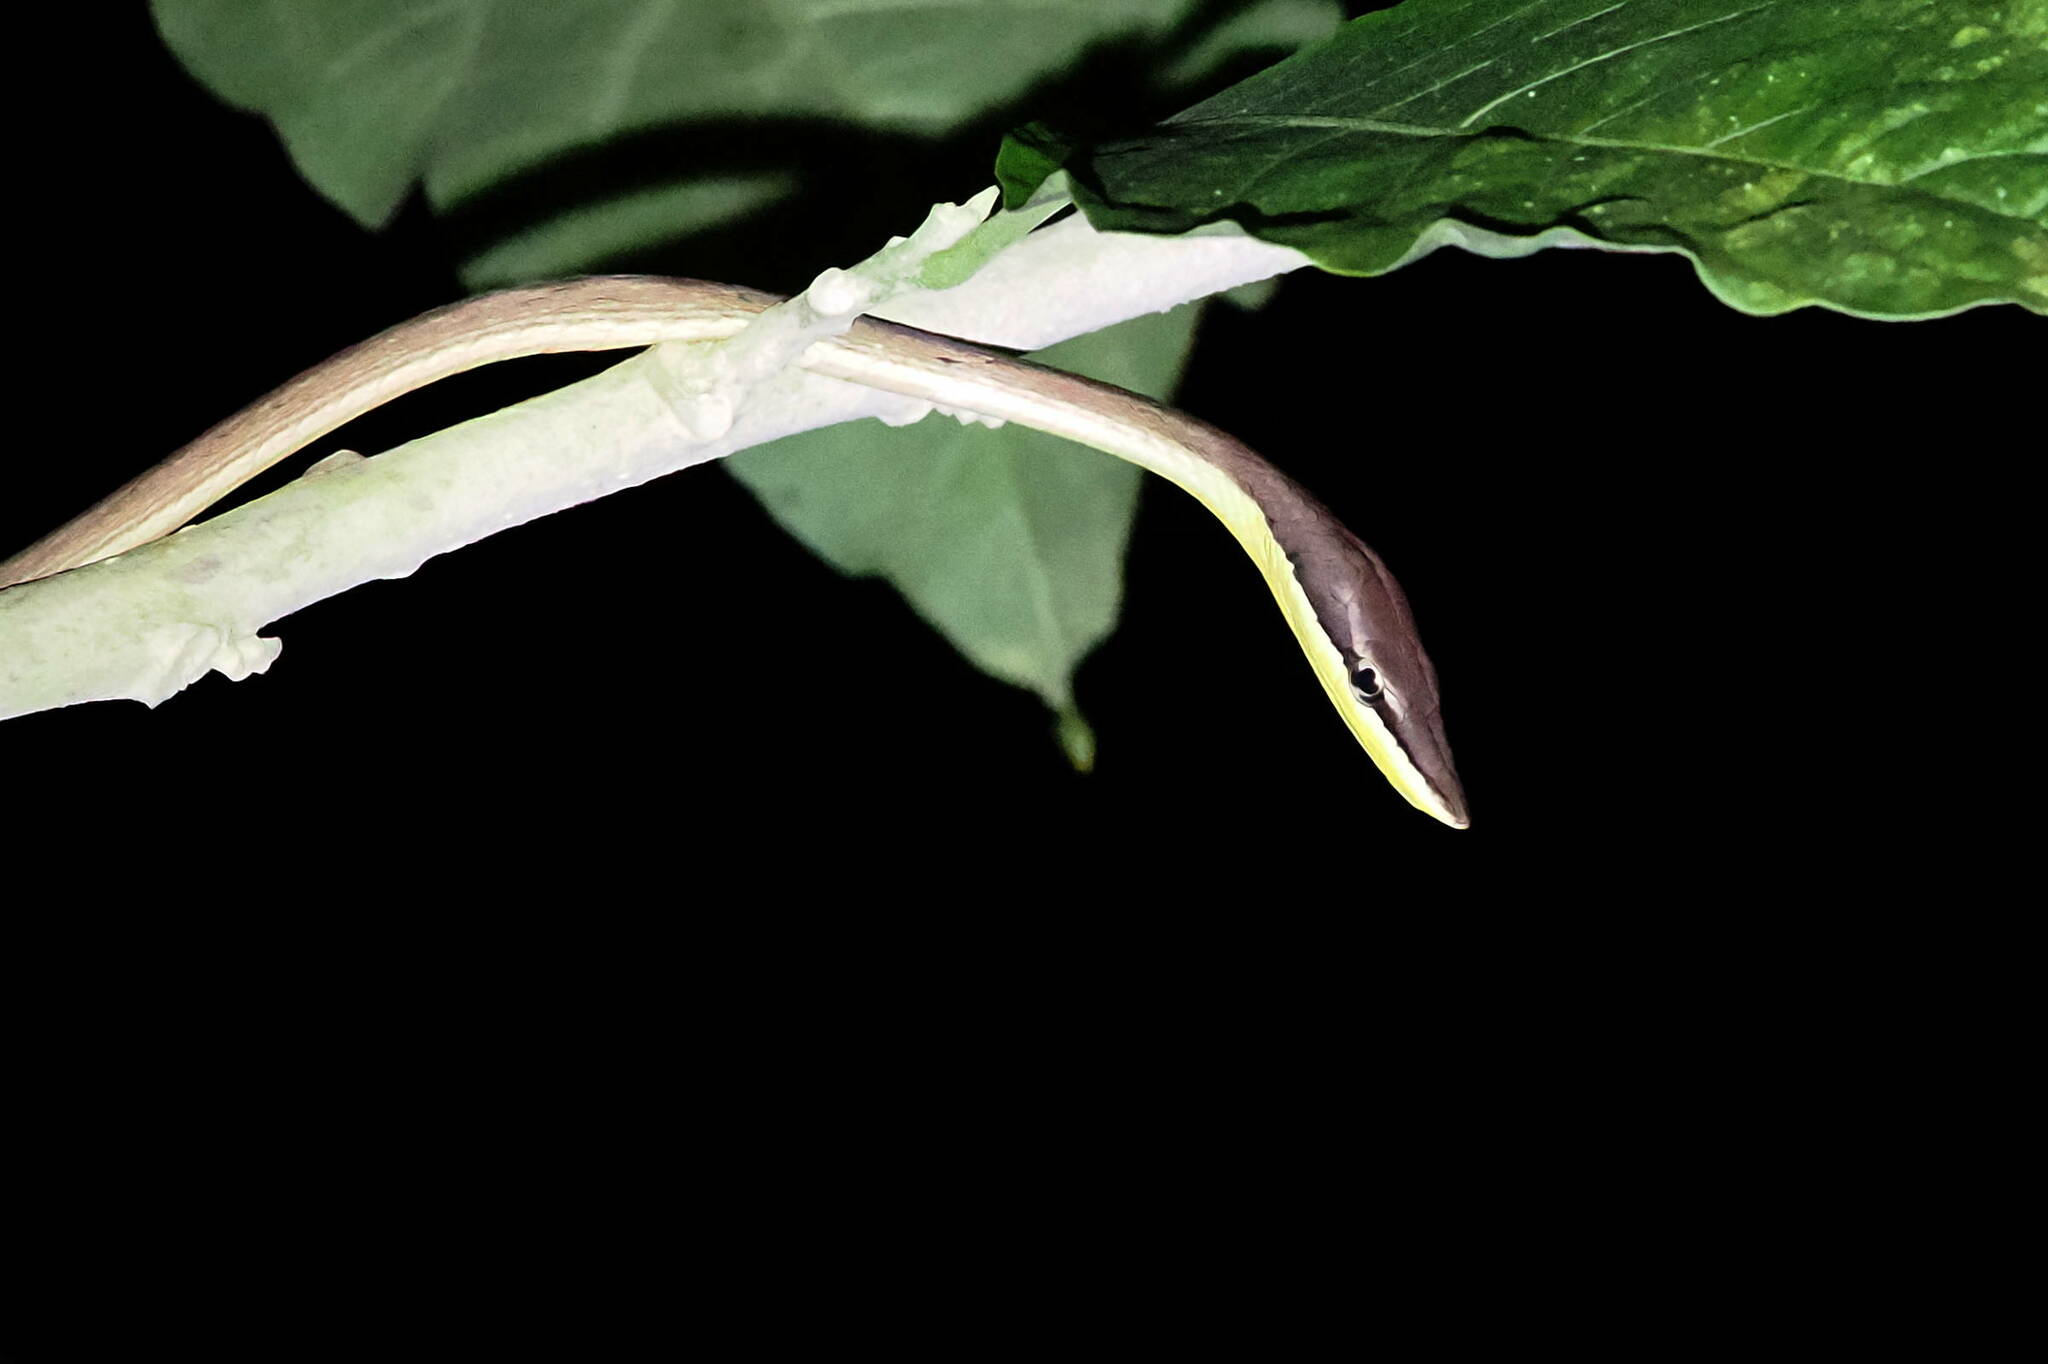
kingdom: Animalia
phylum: Chordata
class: Squamata
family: Colubridae
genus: Oxybelis
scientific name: Oxybelis rutherfordi
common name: Rutherford’s vine snake
